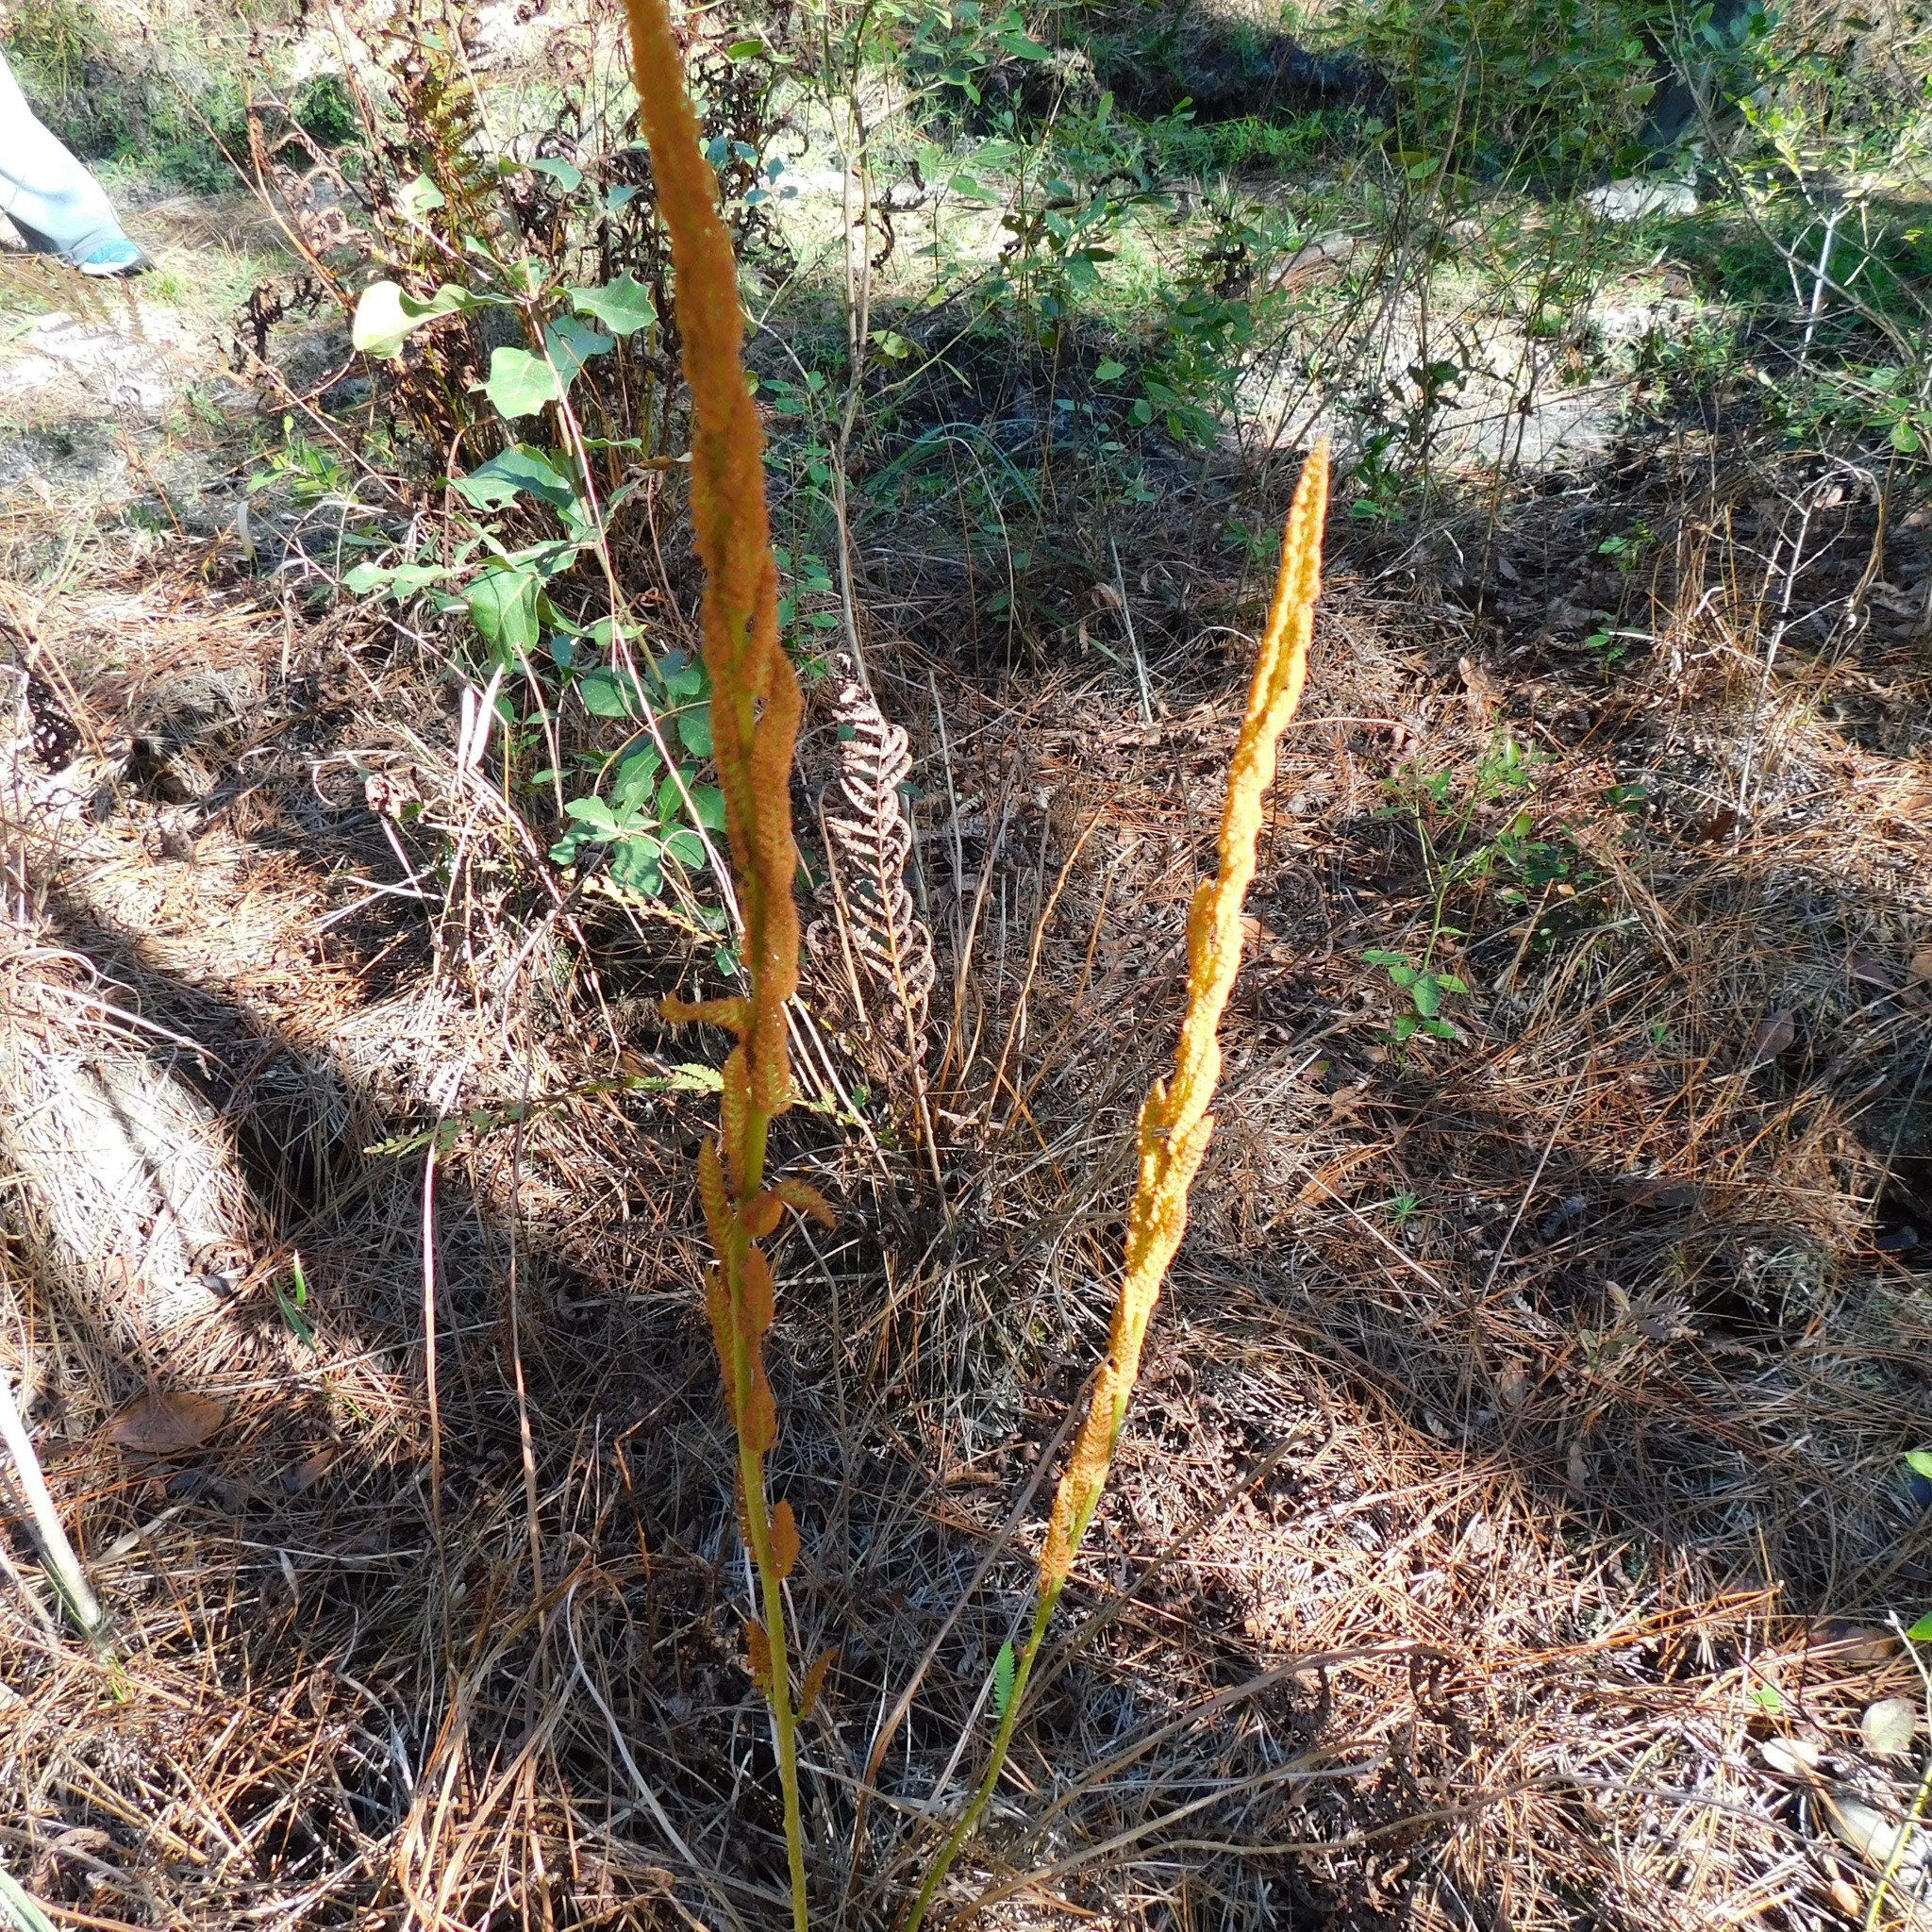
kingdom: Plantae
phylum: Tracheophyta
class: Polypodiopsida
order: Osmundales
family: Osmundaceae
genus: Osmundastrum
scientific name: Osmundastrum cinnamomeum
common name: Cinnamon fern
